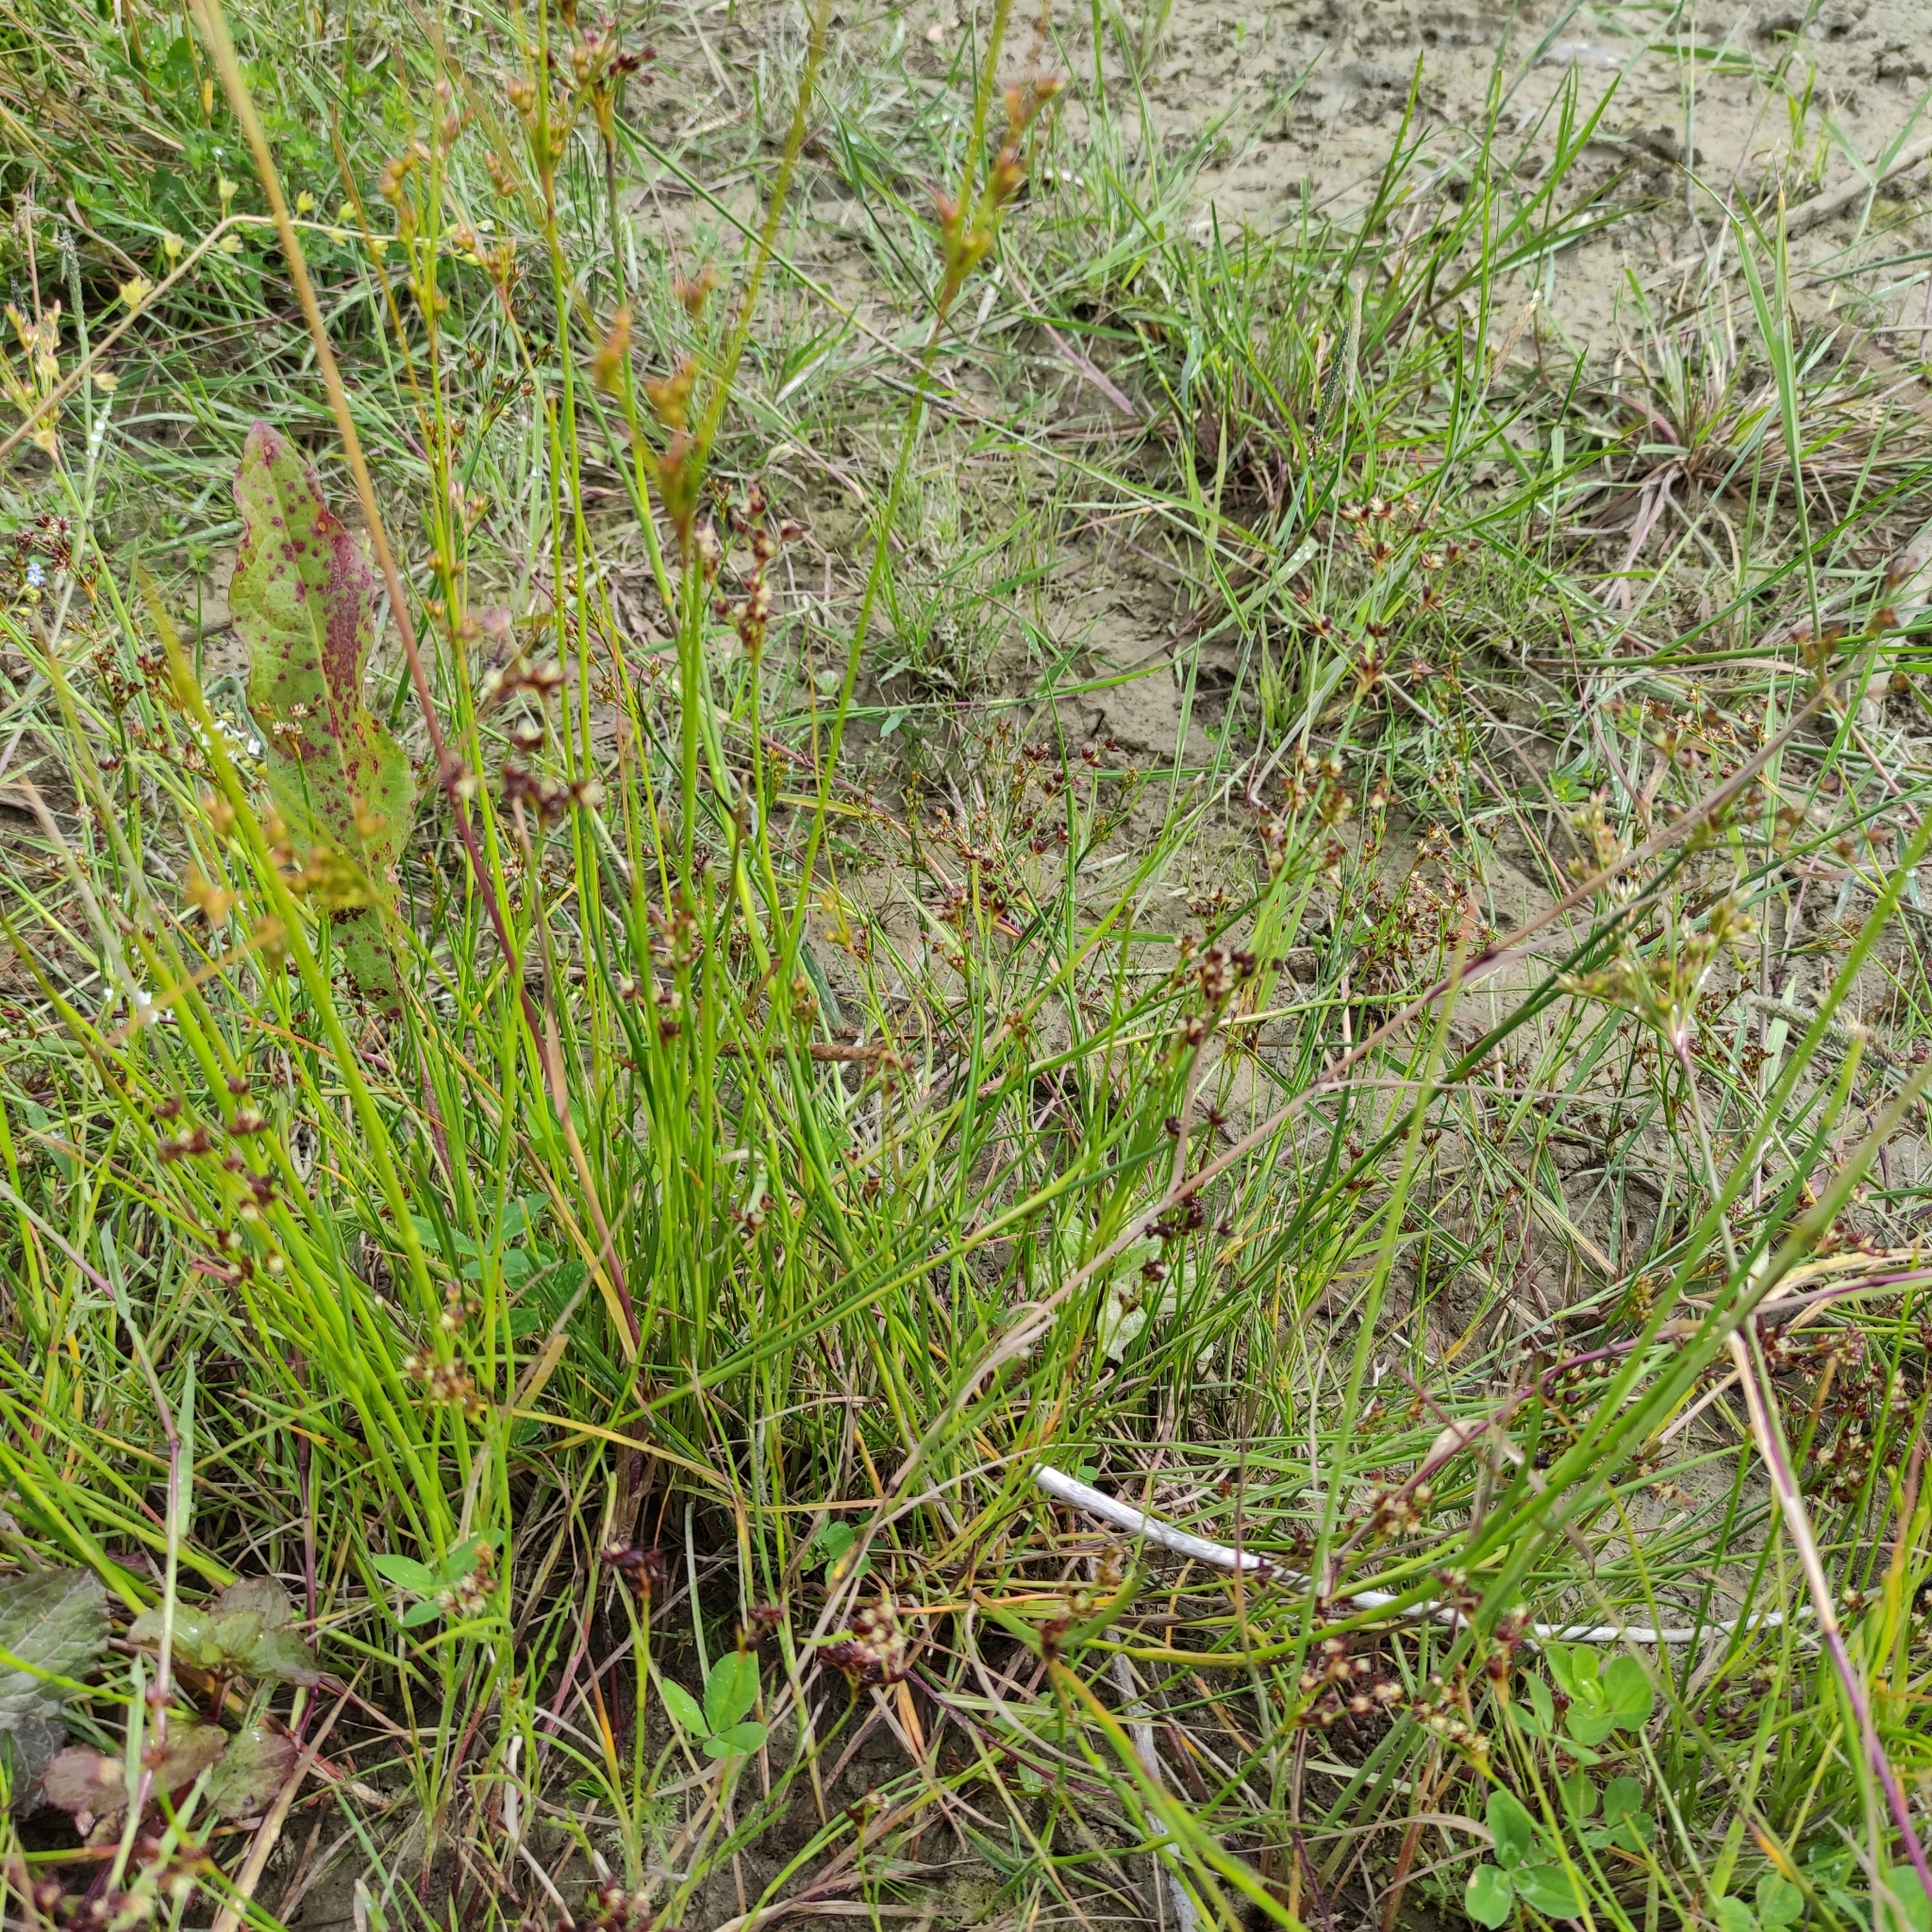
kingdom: Plantae
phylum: Tracheophyta
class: Liliopsida
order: Poales
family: Juncaceae
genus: Juncus
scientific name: Juncus articulatus
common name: Jointed rush
